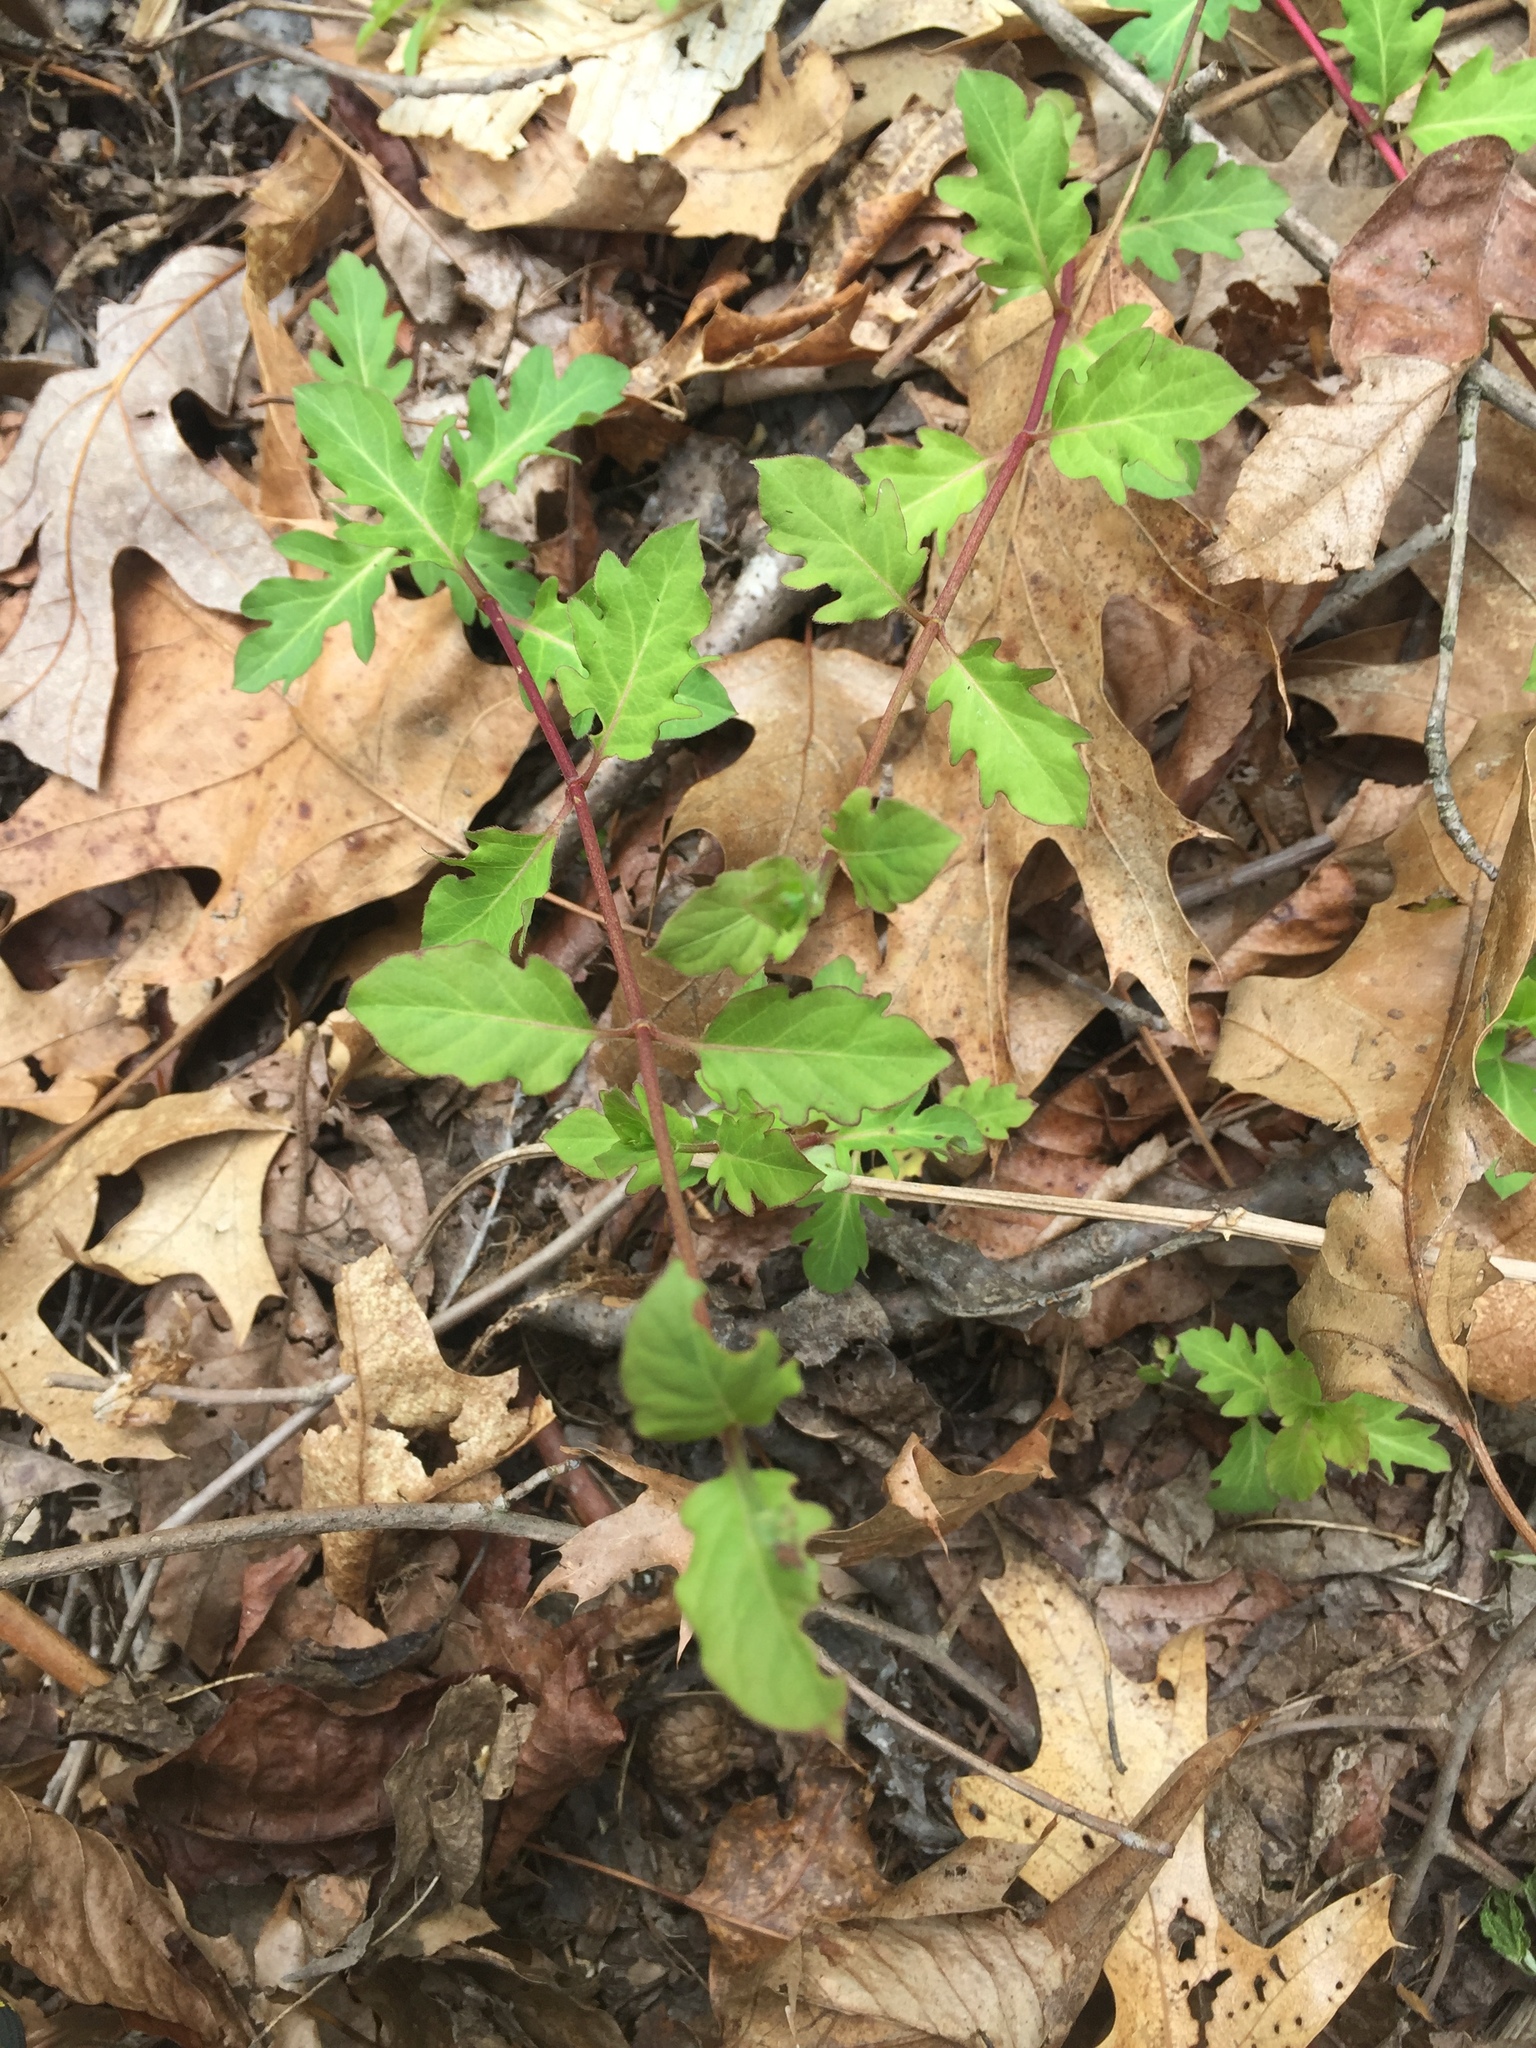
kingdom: Plantae
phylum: Tracheophyta
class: Magnoliopsida
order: Dipsacales
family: Caprifoliaceae
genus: Lonicera
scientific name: Lonicera japonica
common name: Japanese honeysuckle
